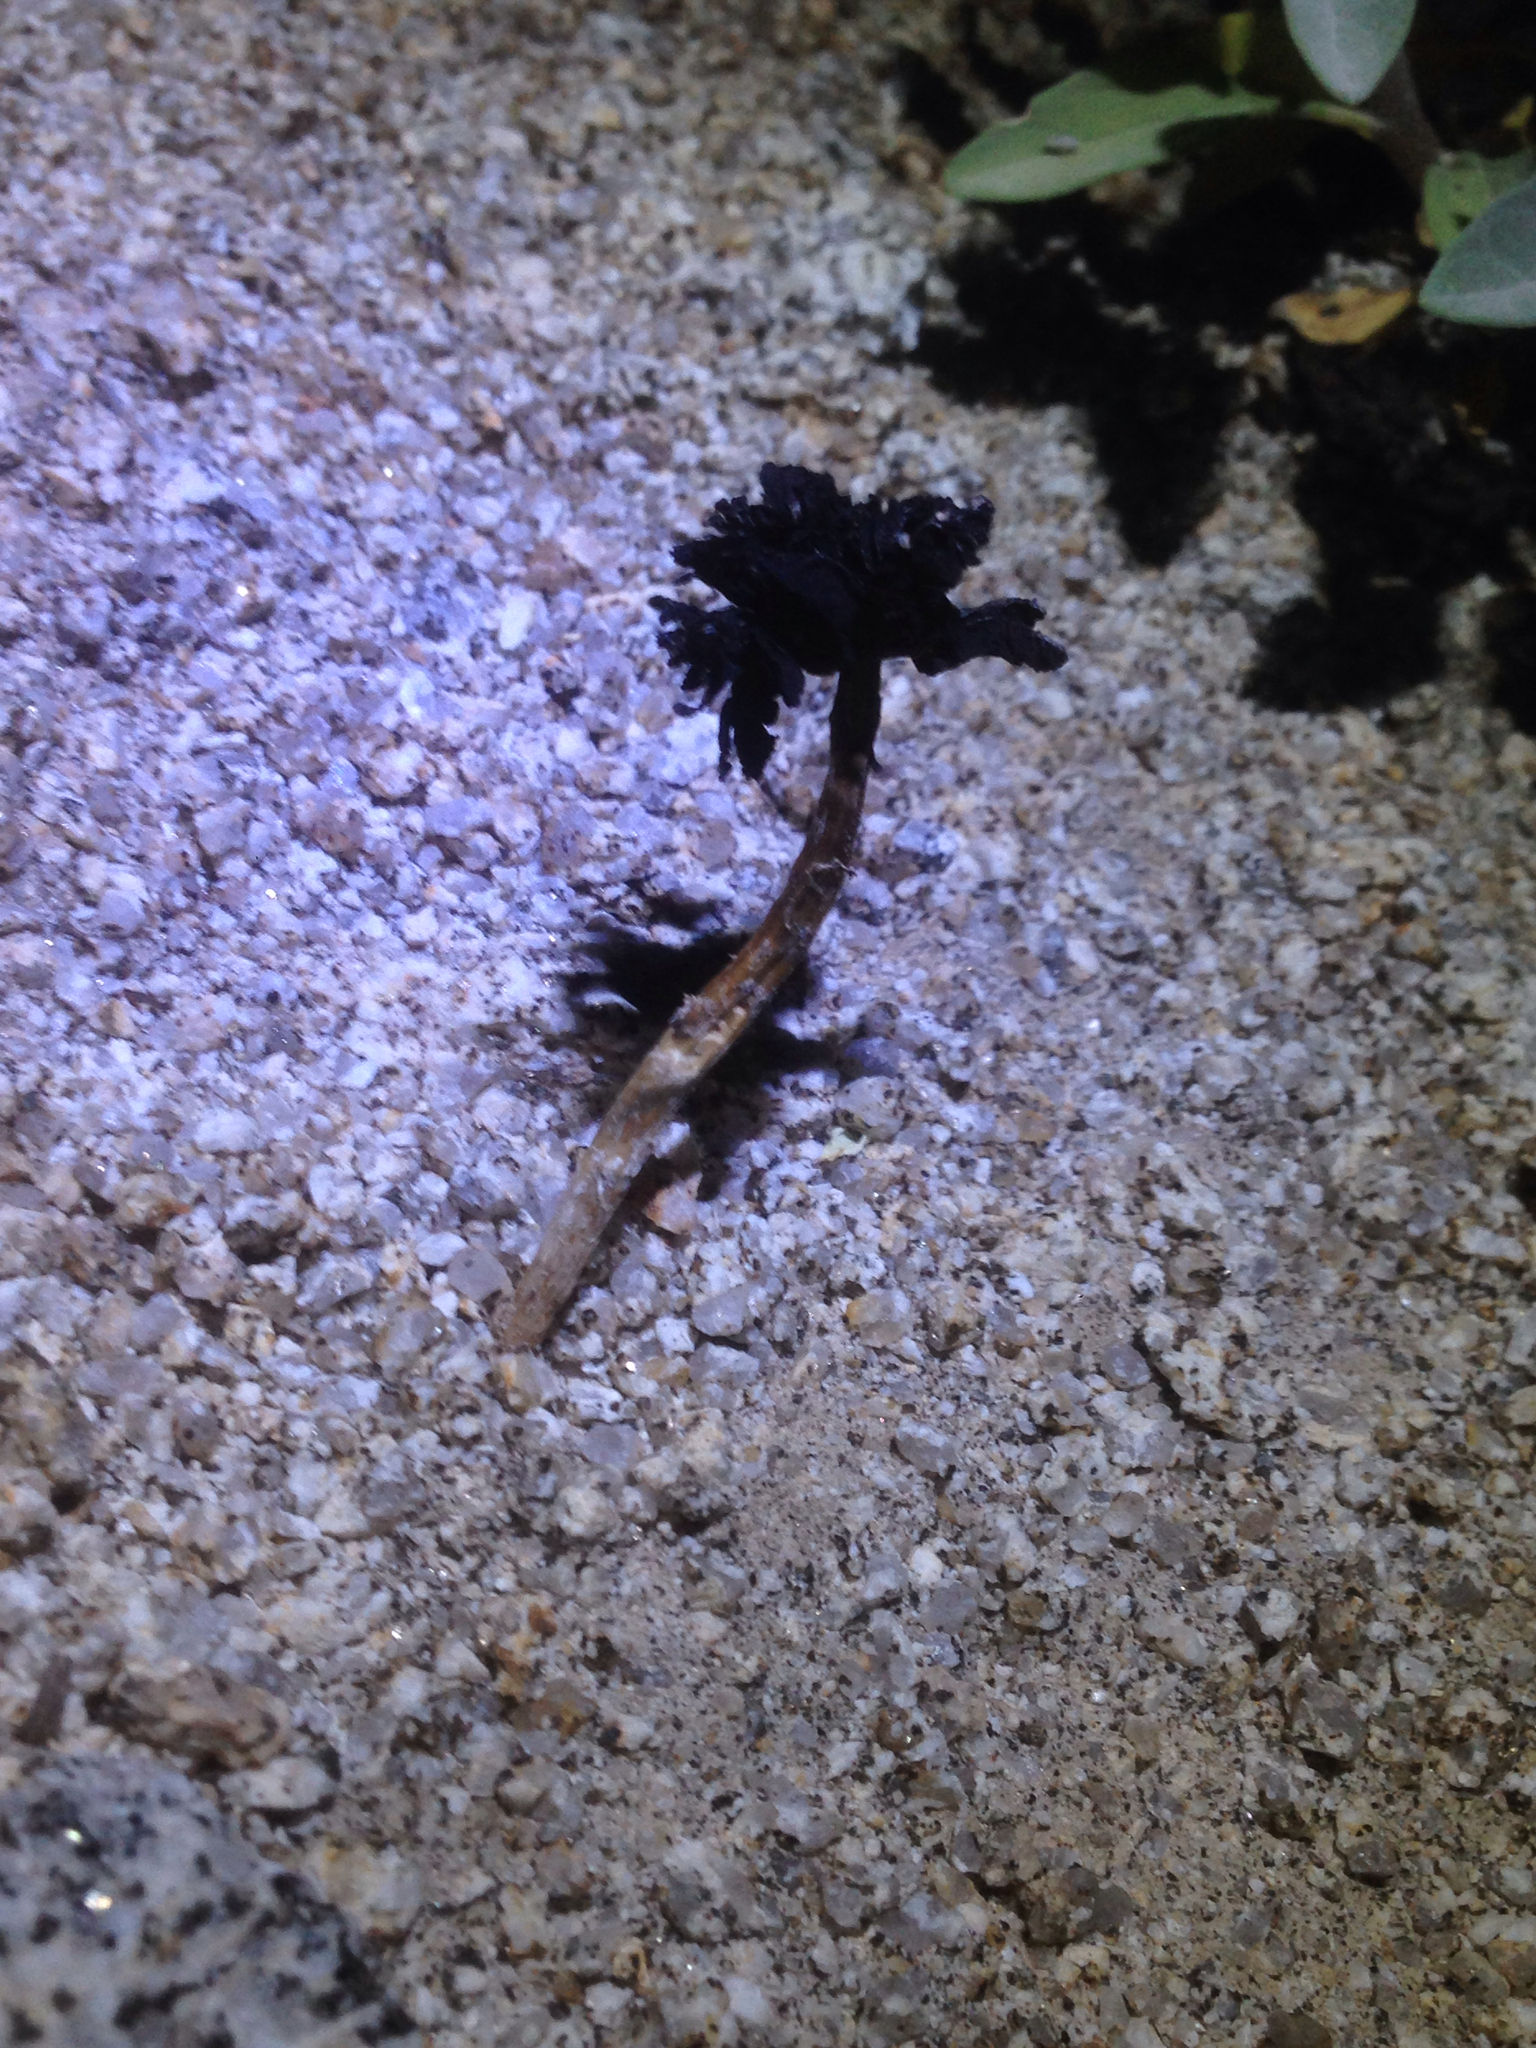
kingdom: Fungi
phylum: Basidiomycota
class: Agaricomycetes
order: Agaricales
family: Agaricaceae
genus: Montagnea
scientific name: Montagnea arenaria
